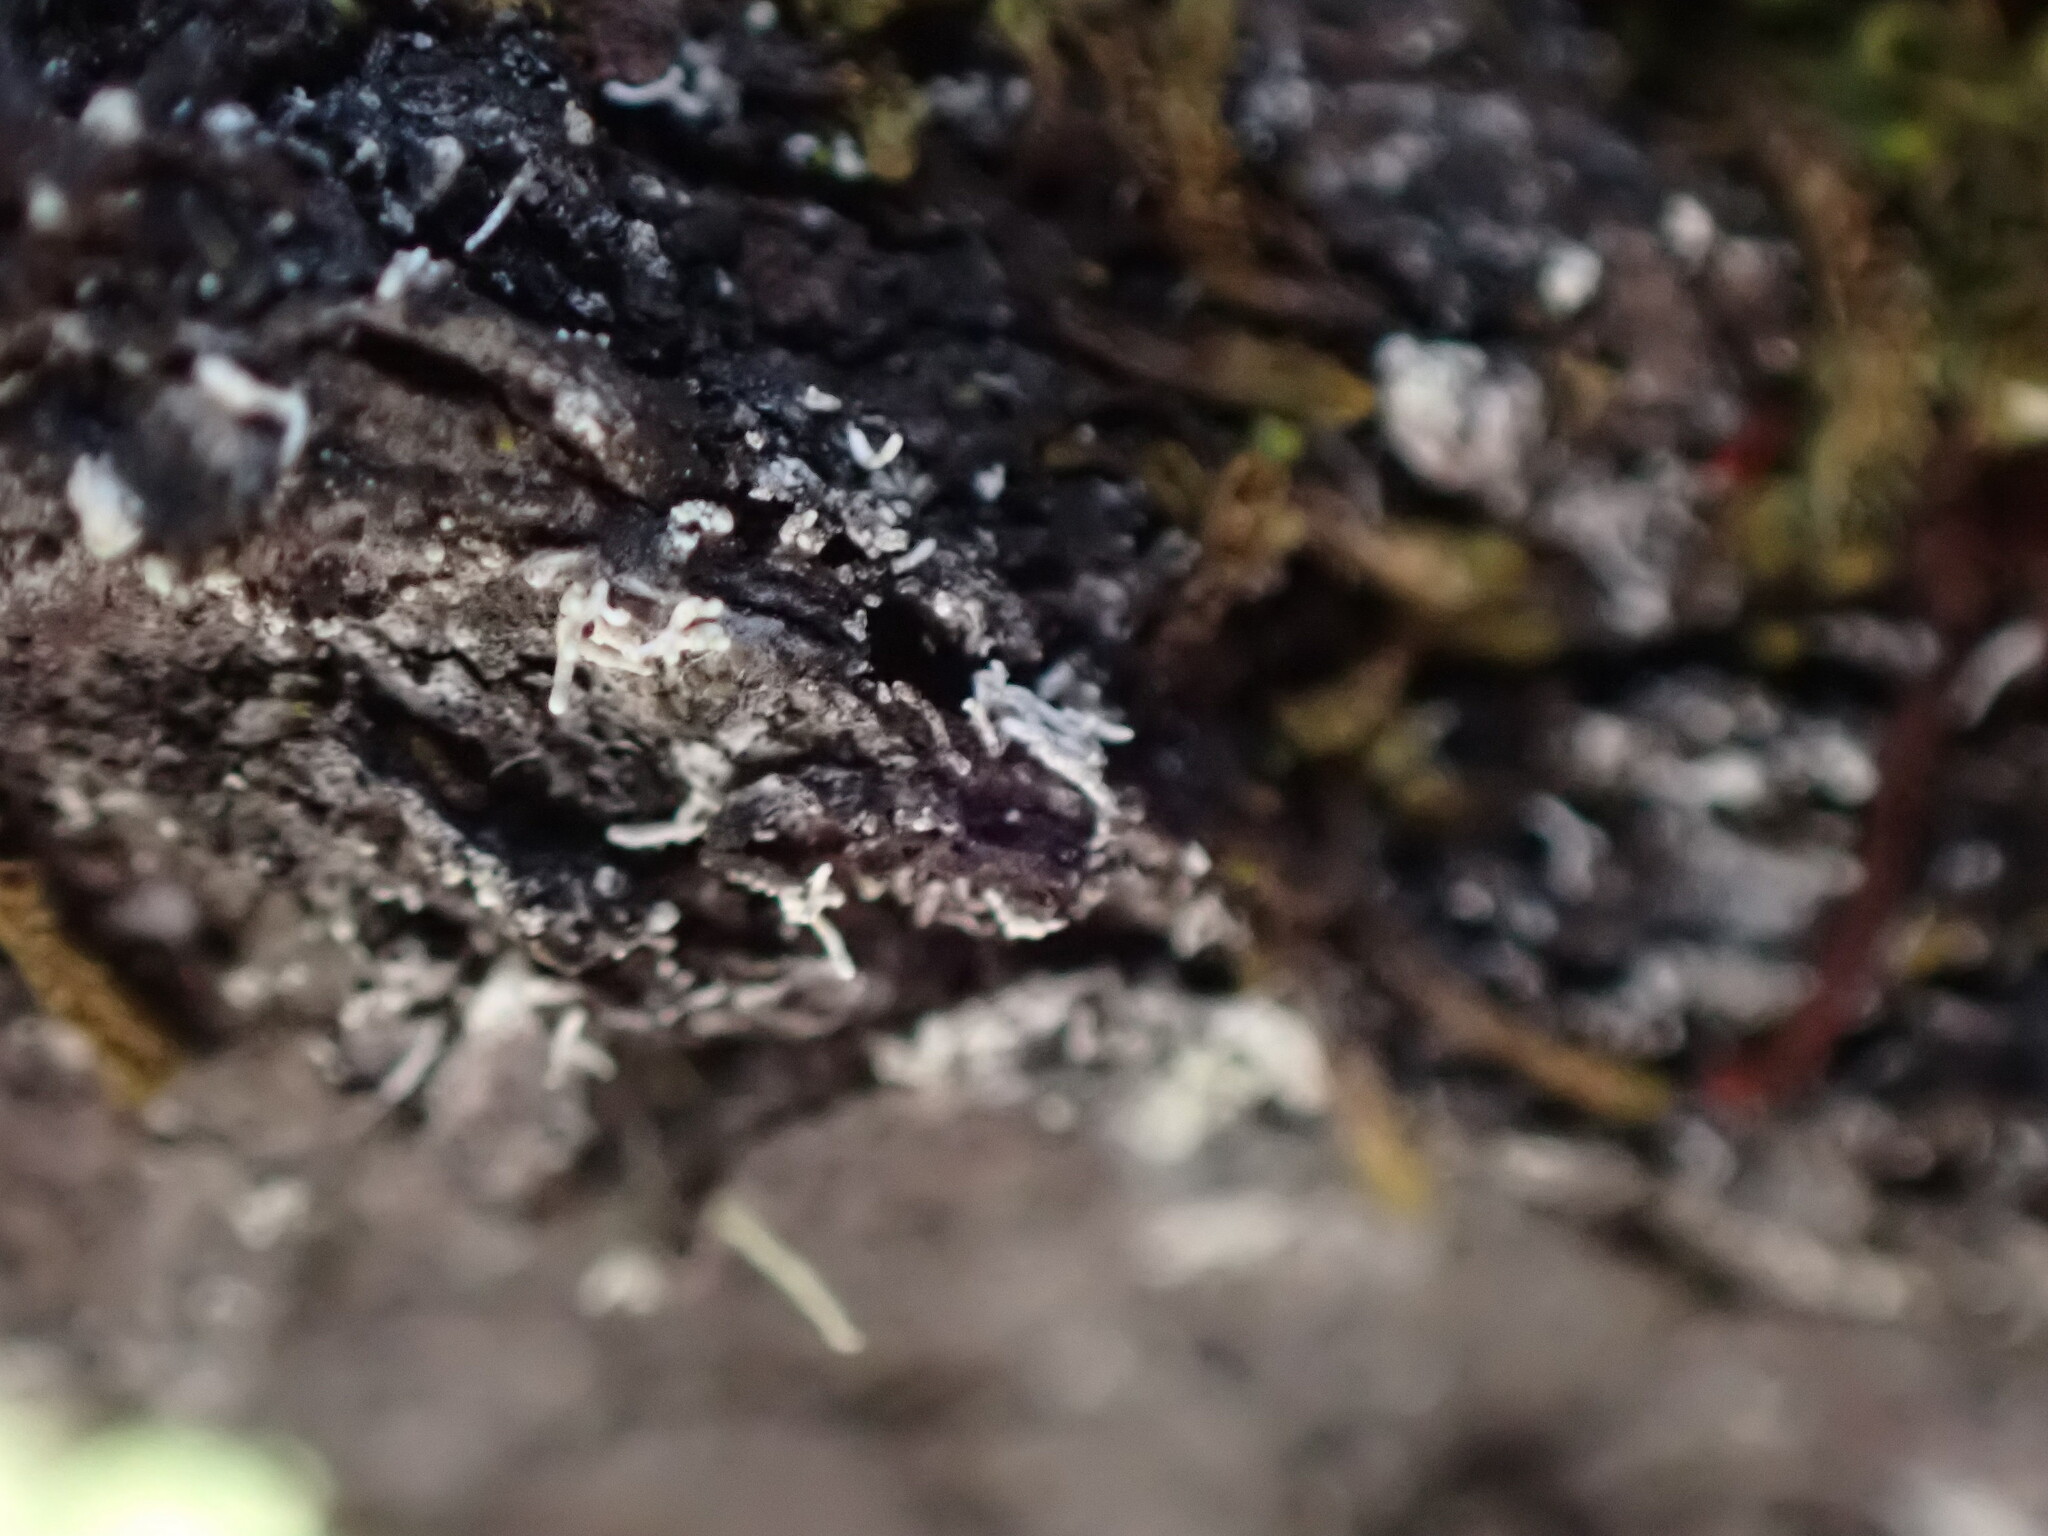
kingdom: Fungi
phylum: Ascomycota
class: Lecanoromycetes
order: Pertusariales
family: Pertusariaceae
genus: Loxosporopsis
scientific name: Loxosporopsis corallifera
